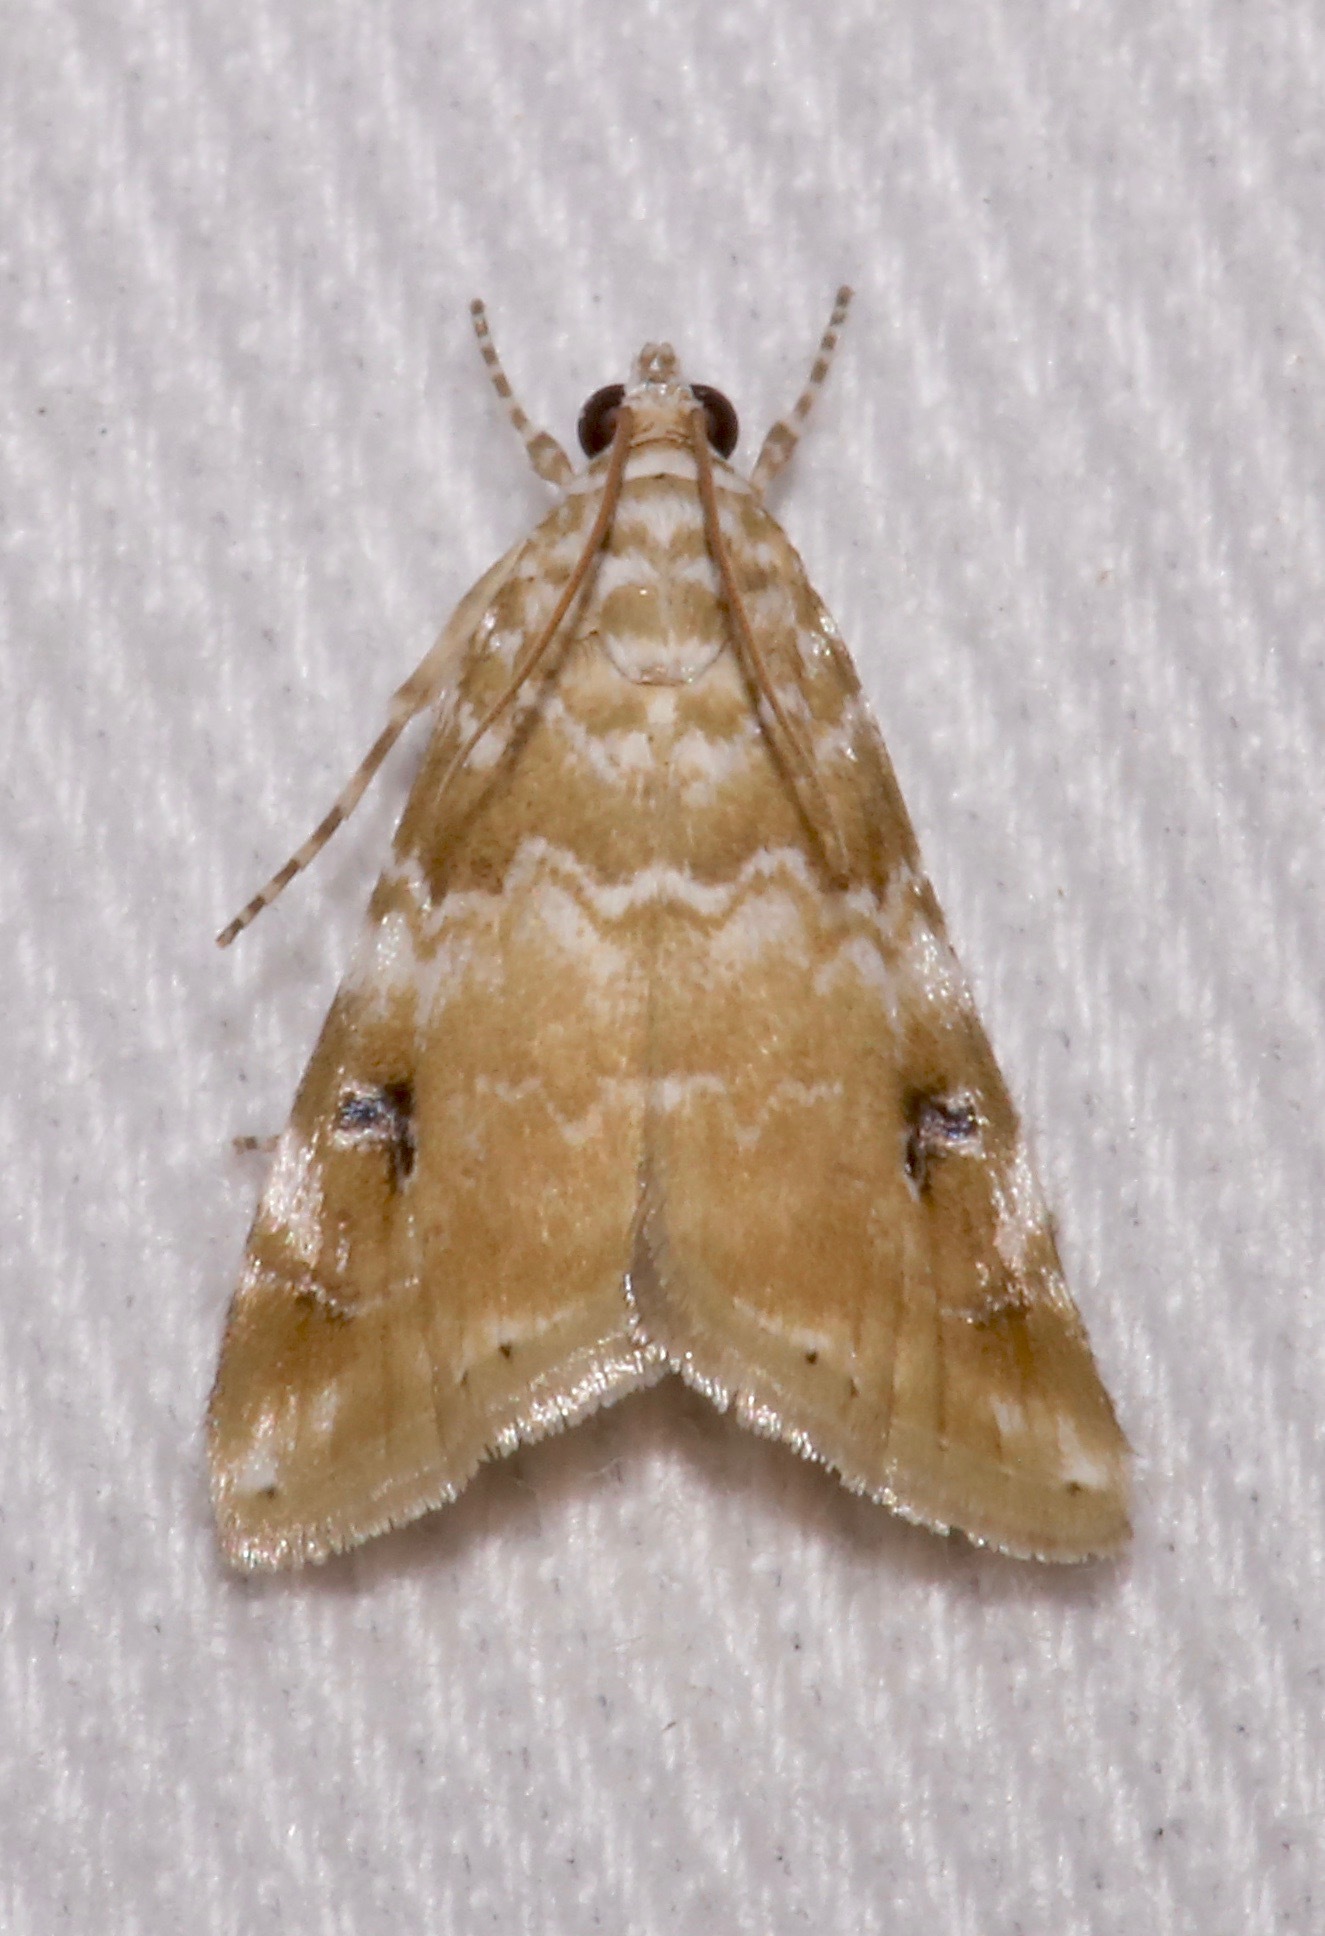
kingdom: Animalia
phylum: Arthropoda
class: Insecta
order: Lepidoptera
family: Crambidae
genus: Hellula
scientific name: Hellula phidilealis
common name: Crambid moth
